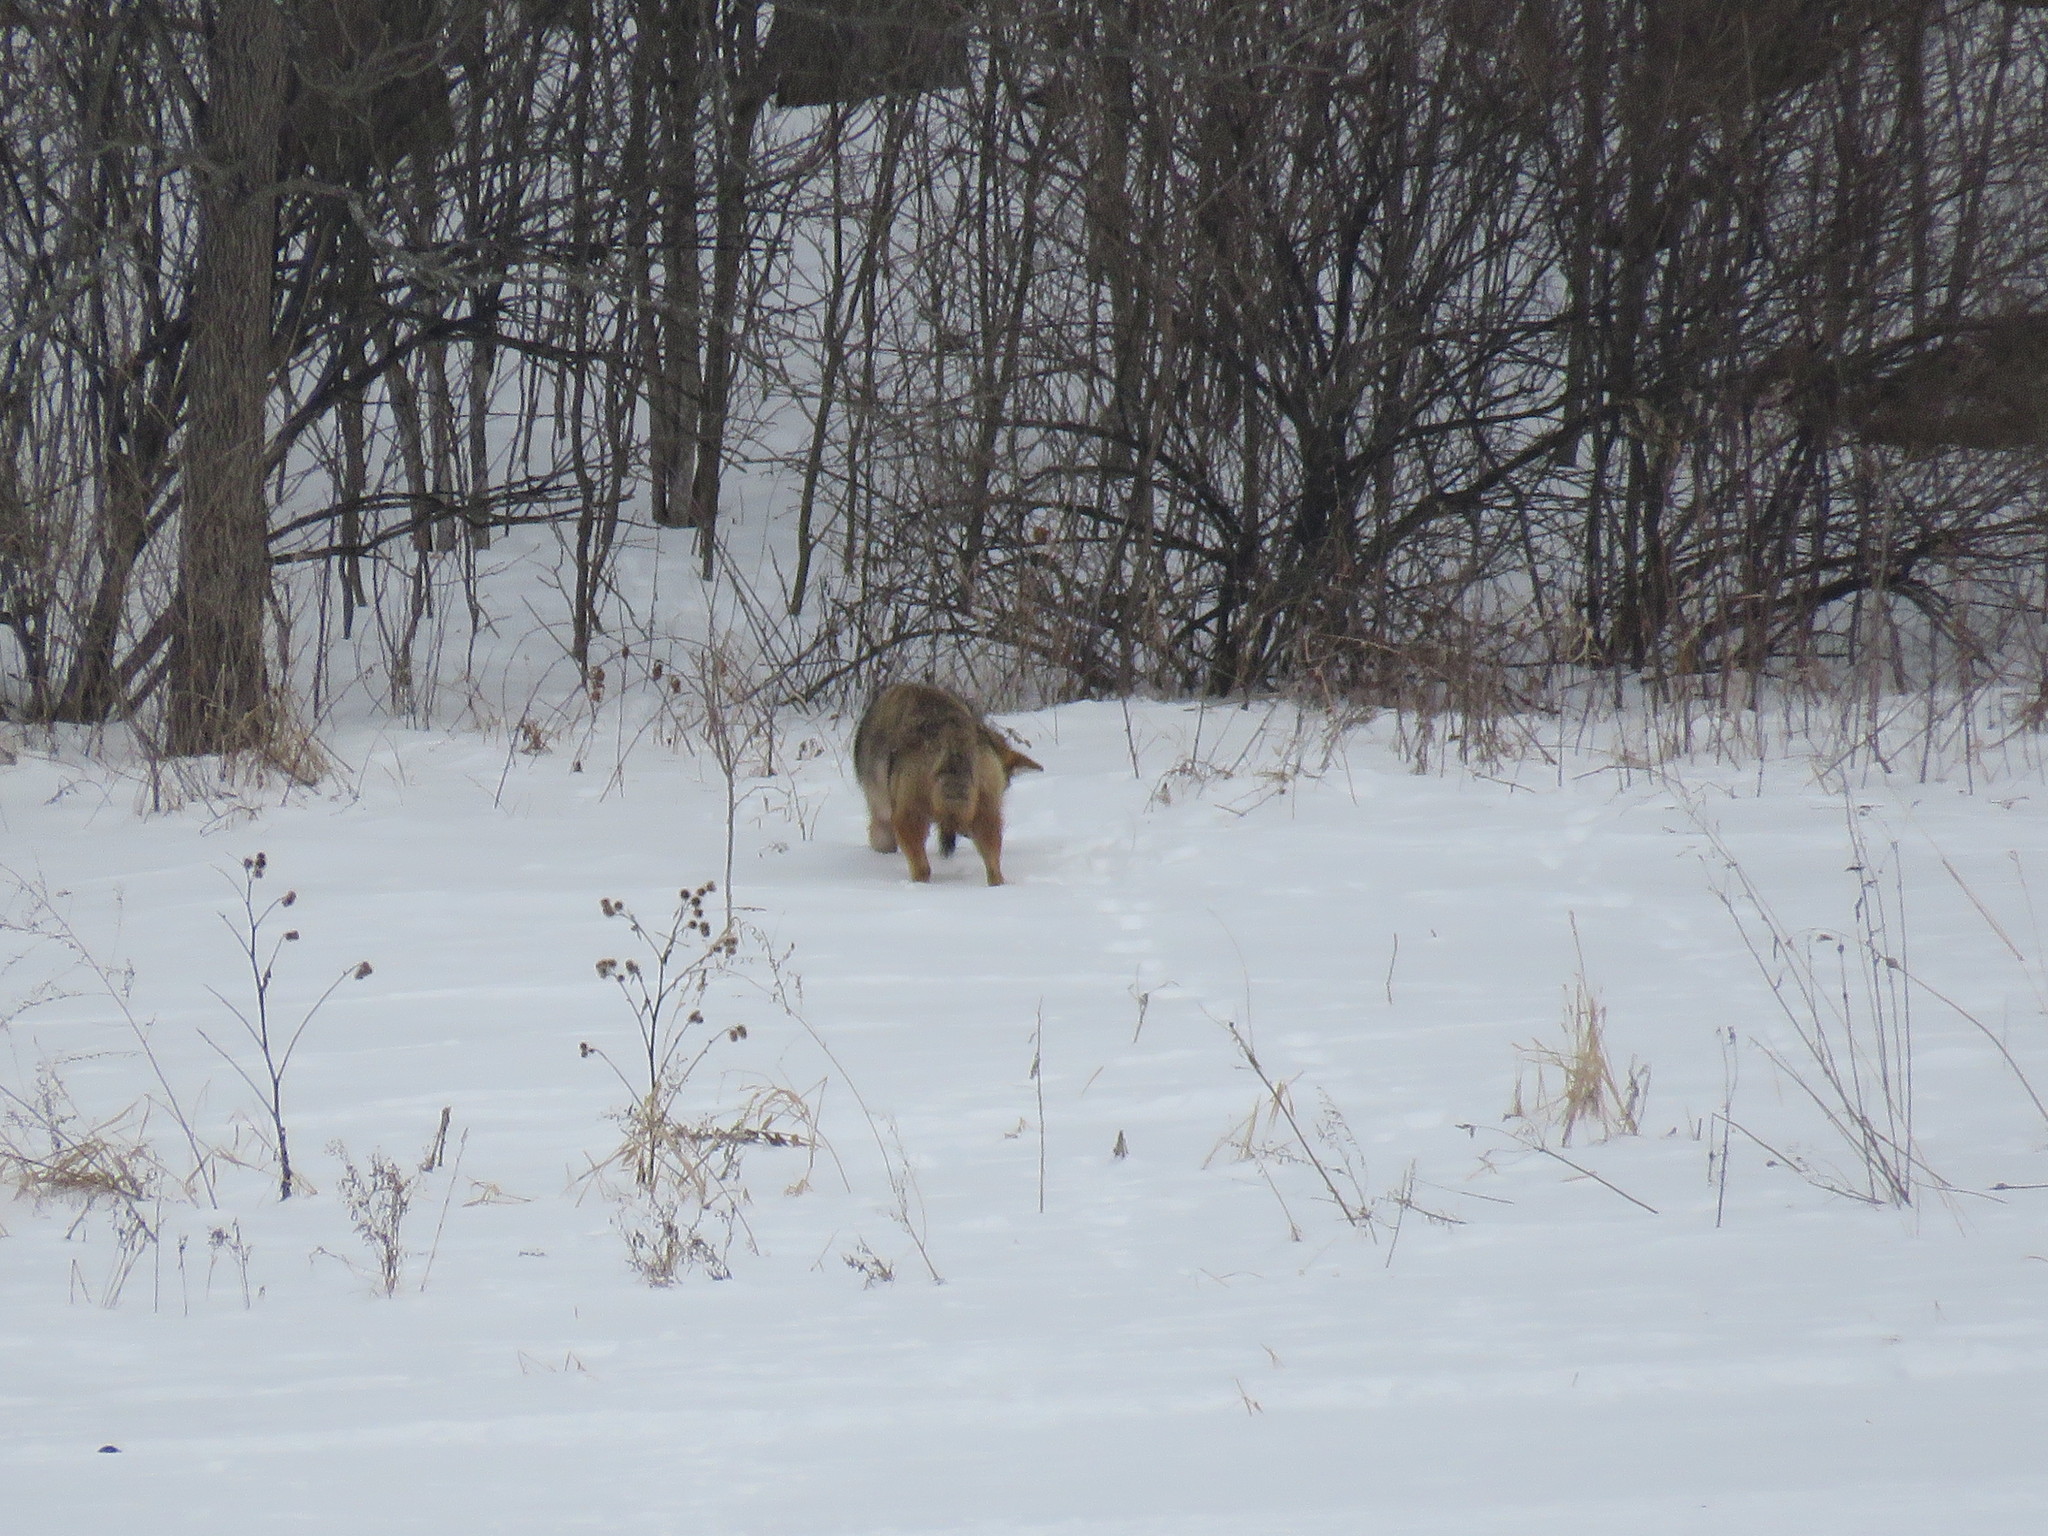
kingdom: Animalia
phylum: Chordata
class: Mammalia
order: Carnivora
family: Canidae
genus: Canis
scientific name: Canis latrans
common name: Coyote
